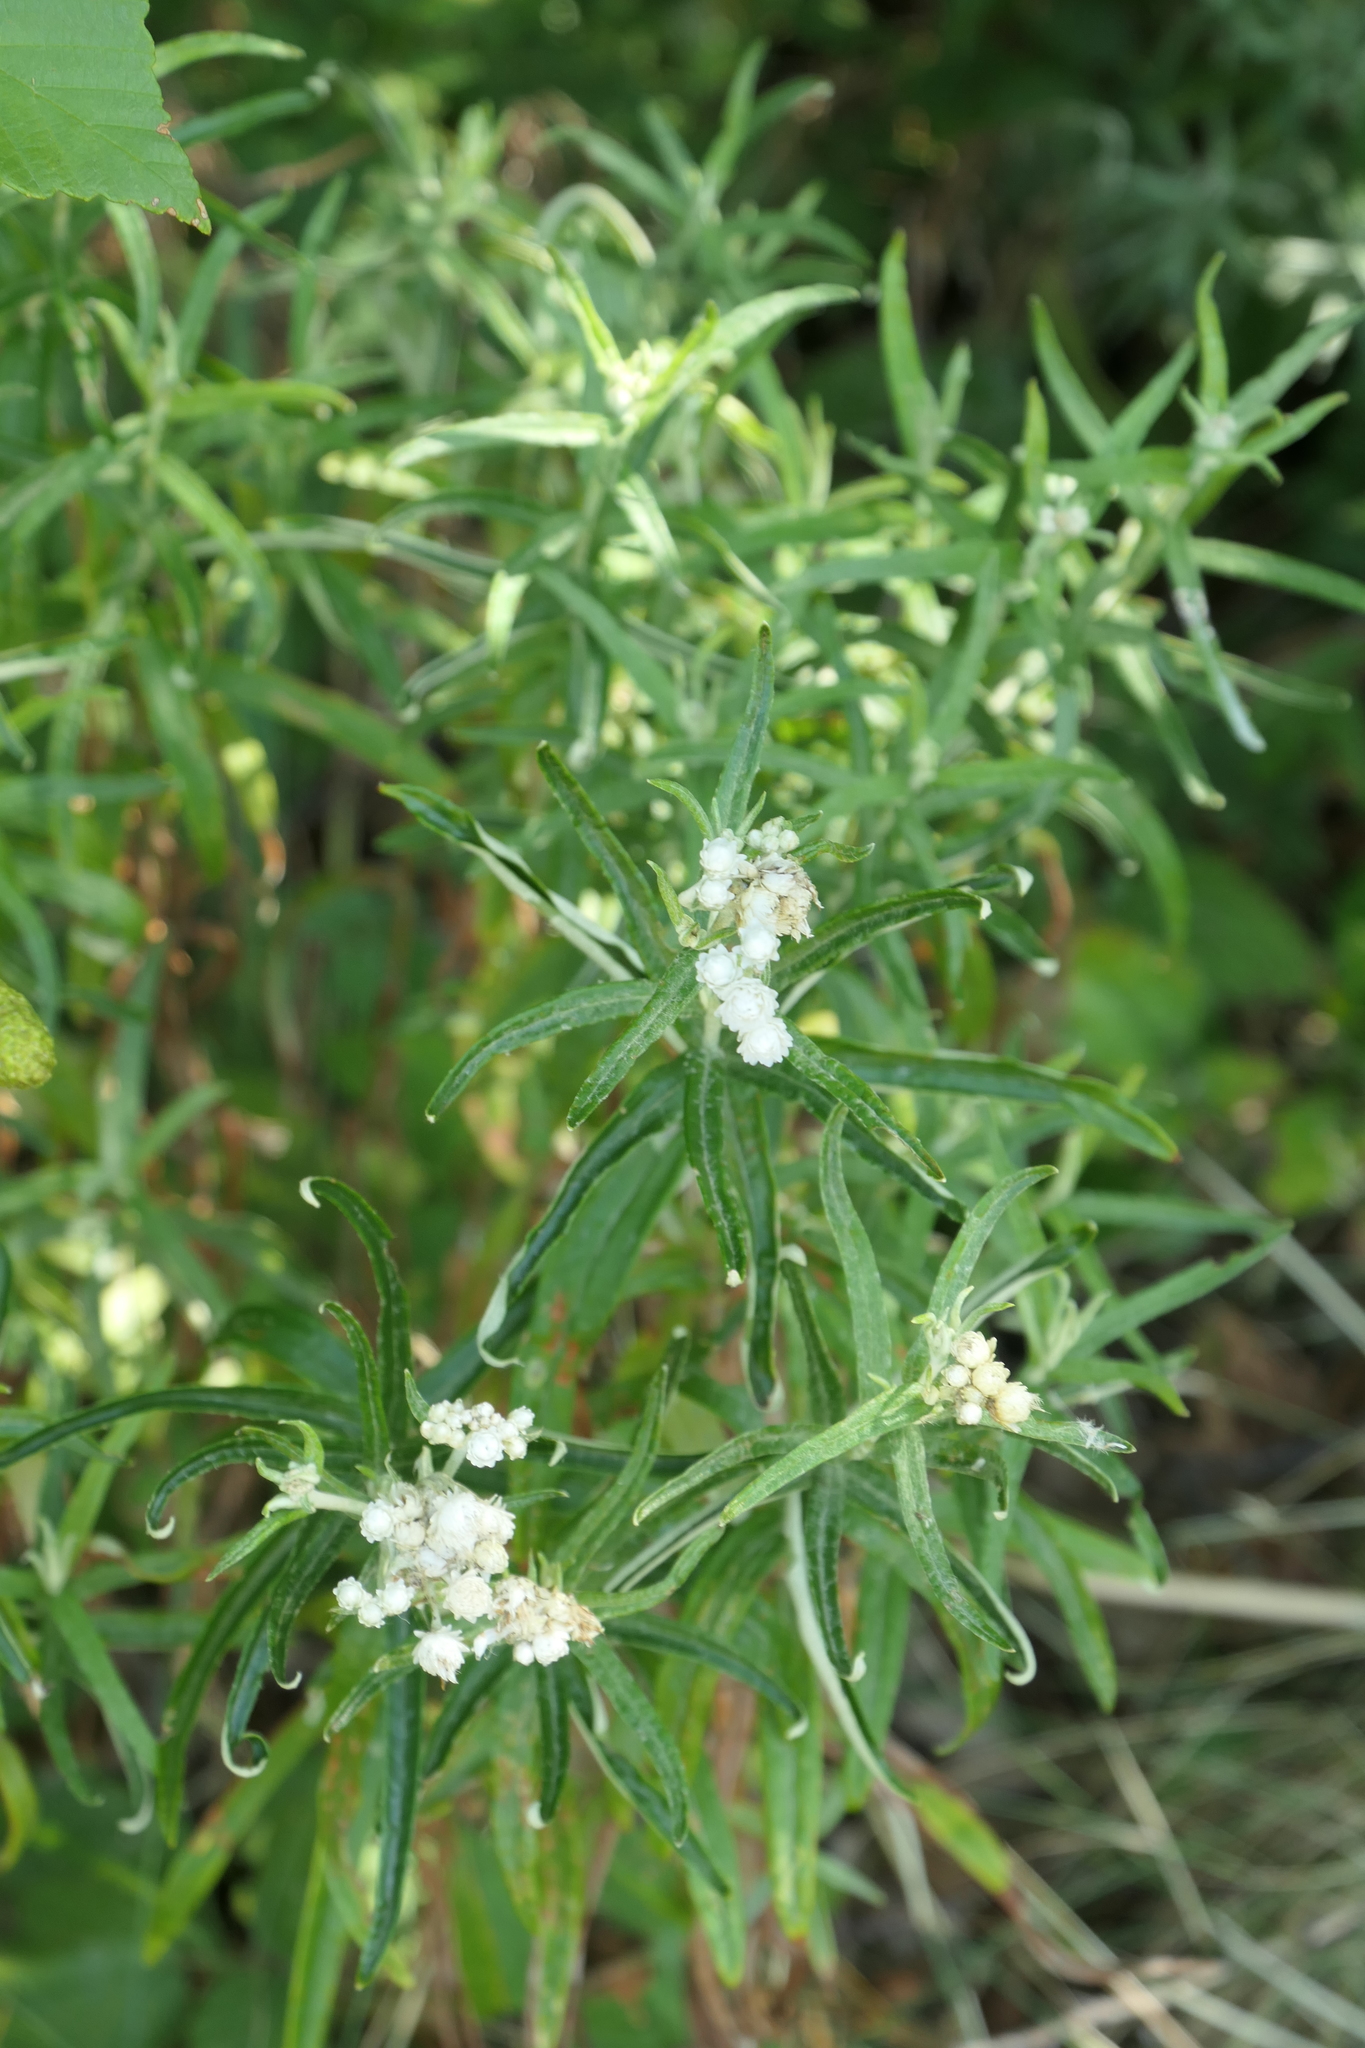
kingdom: Plantae
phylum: Tracheophyta
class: Magnoliopsida
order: Asterales
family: Asteraceae
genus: Anaphalis
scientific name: Anaphalis margaritacea
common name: Pearly everlasting
